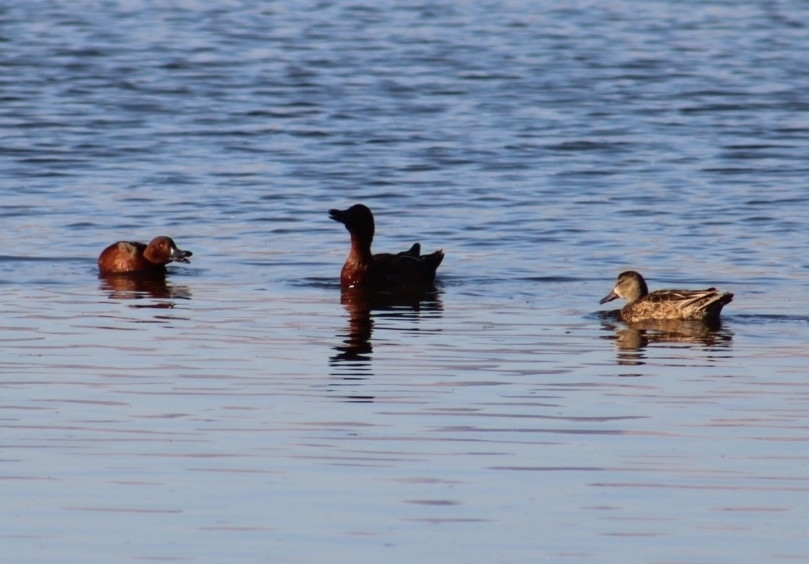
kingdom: Animalia
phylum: Chordata
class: Aves
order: Anseriformes
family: Anatidae
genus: Spatula
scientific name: Spatula cyanoptera
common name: Cinnamon teal
